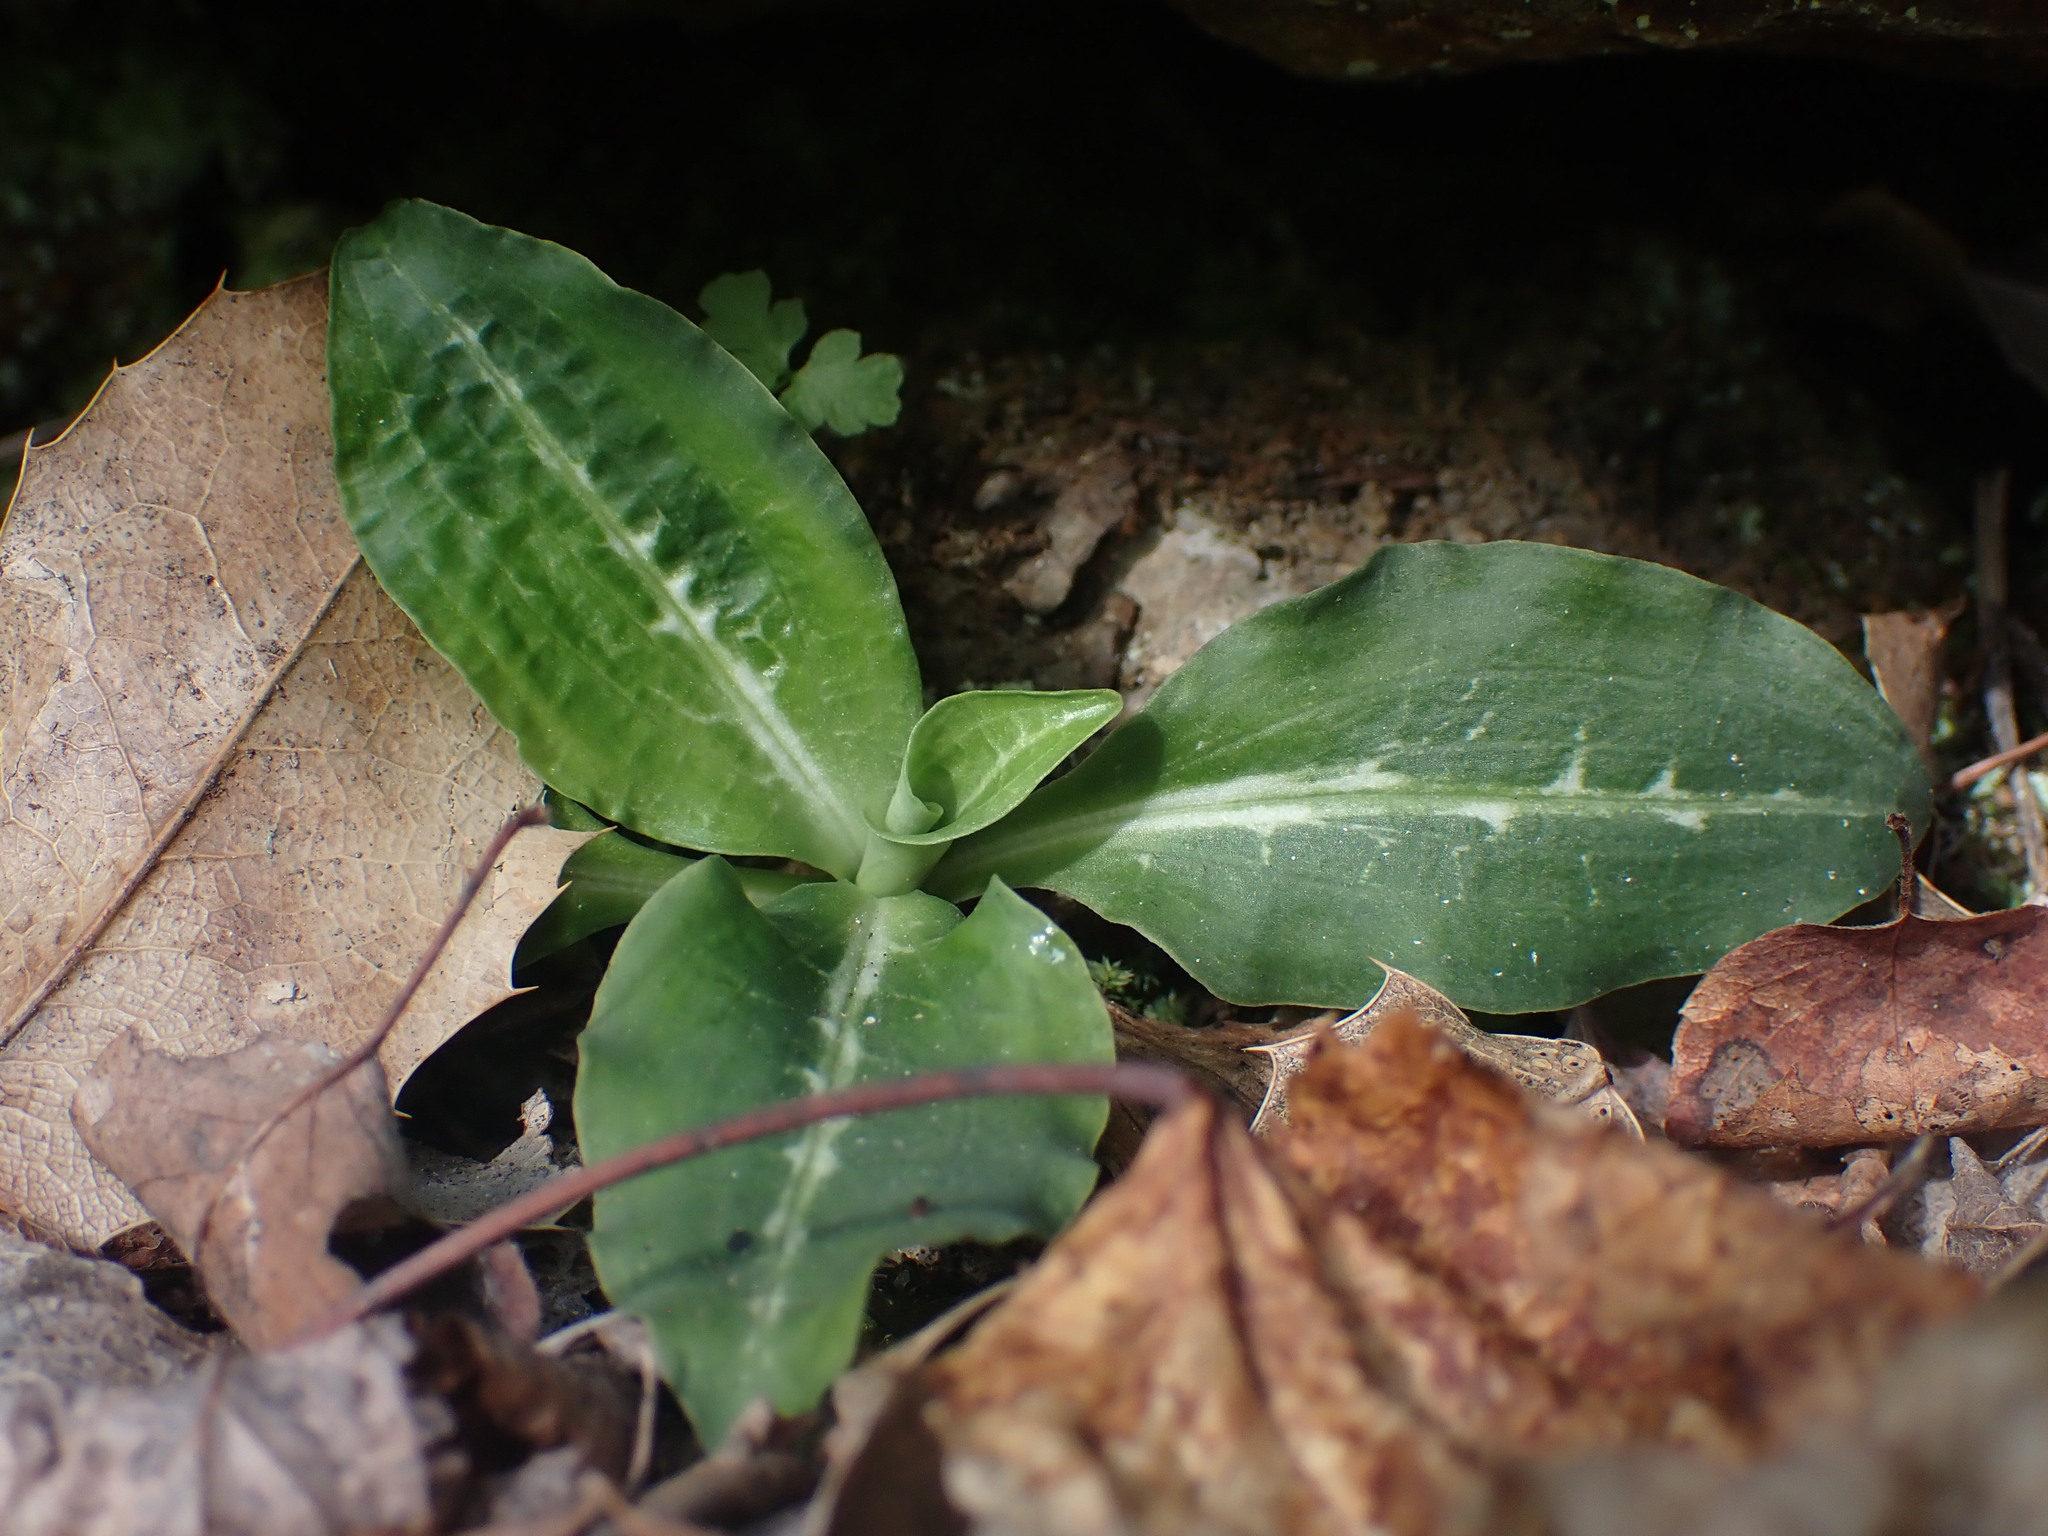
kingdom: Plantae
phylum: Tracheophyta
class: Liliopsida
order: Asparagales
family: Orchidaceae
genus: Goodyera
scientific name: Goodyera oblongifolia
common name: Giant rattlesnake-plantain
